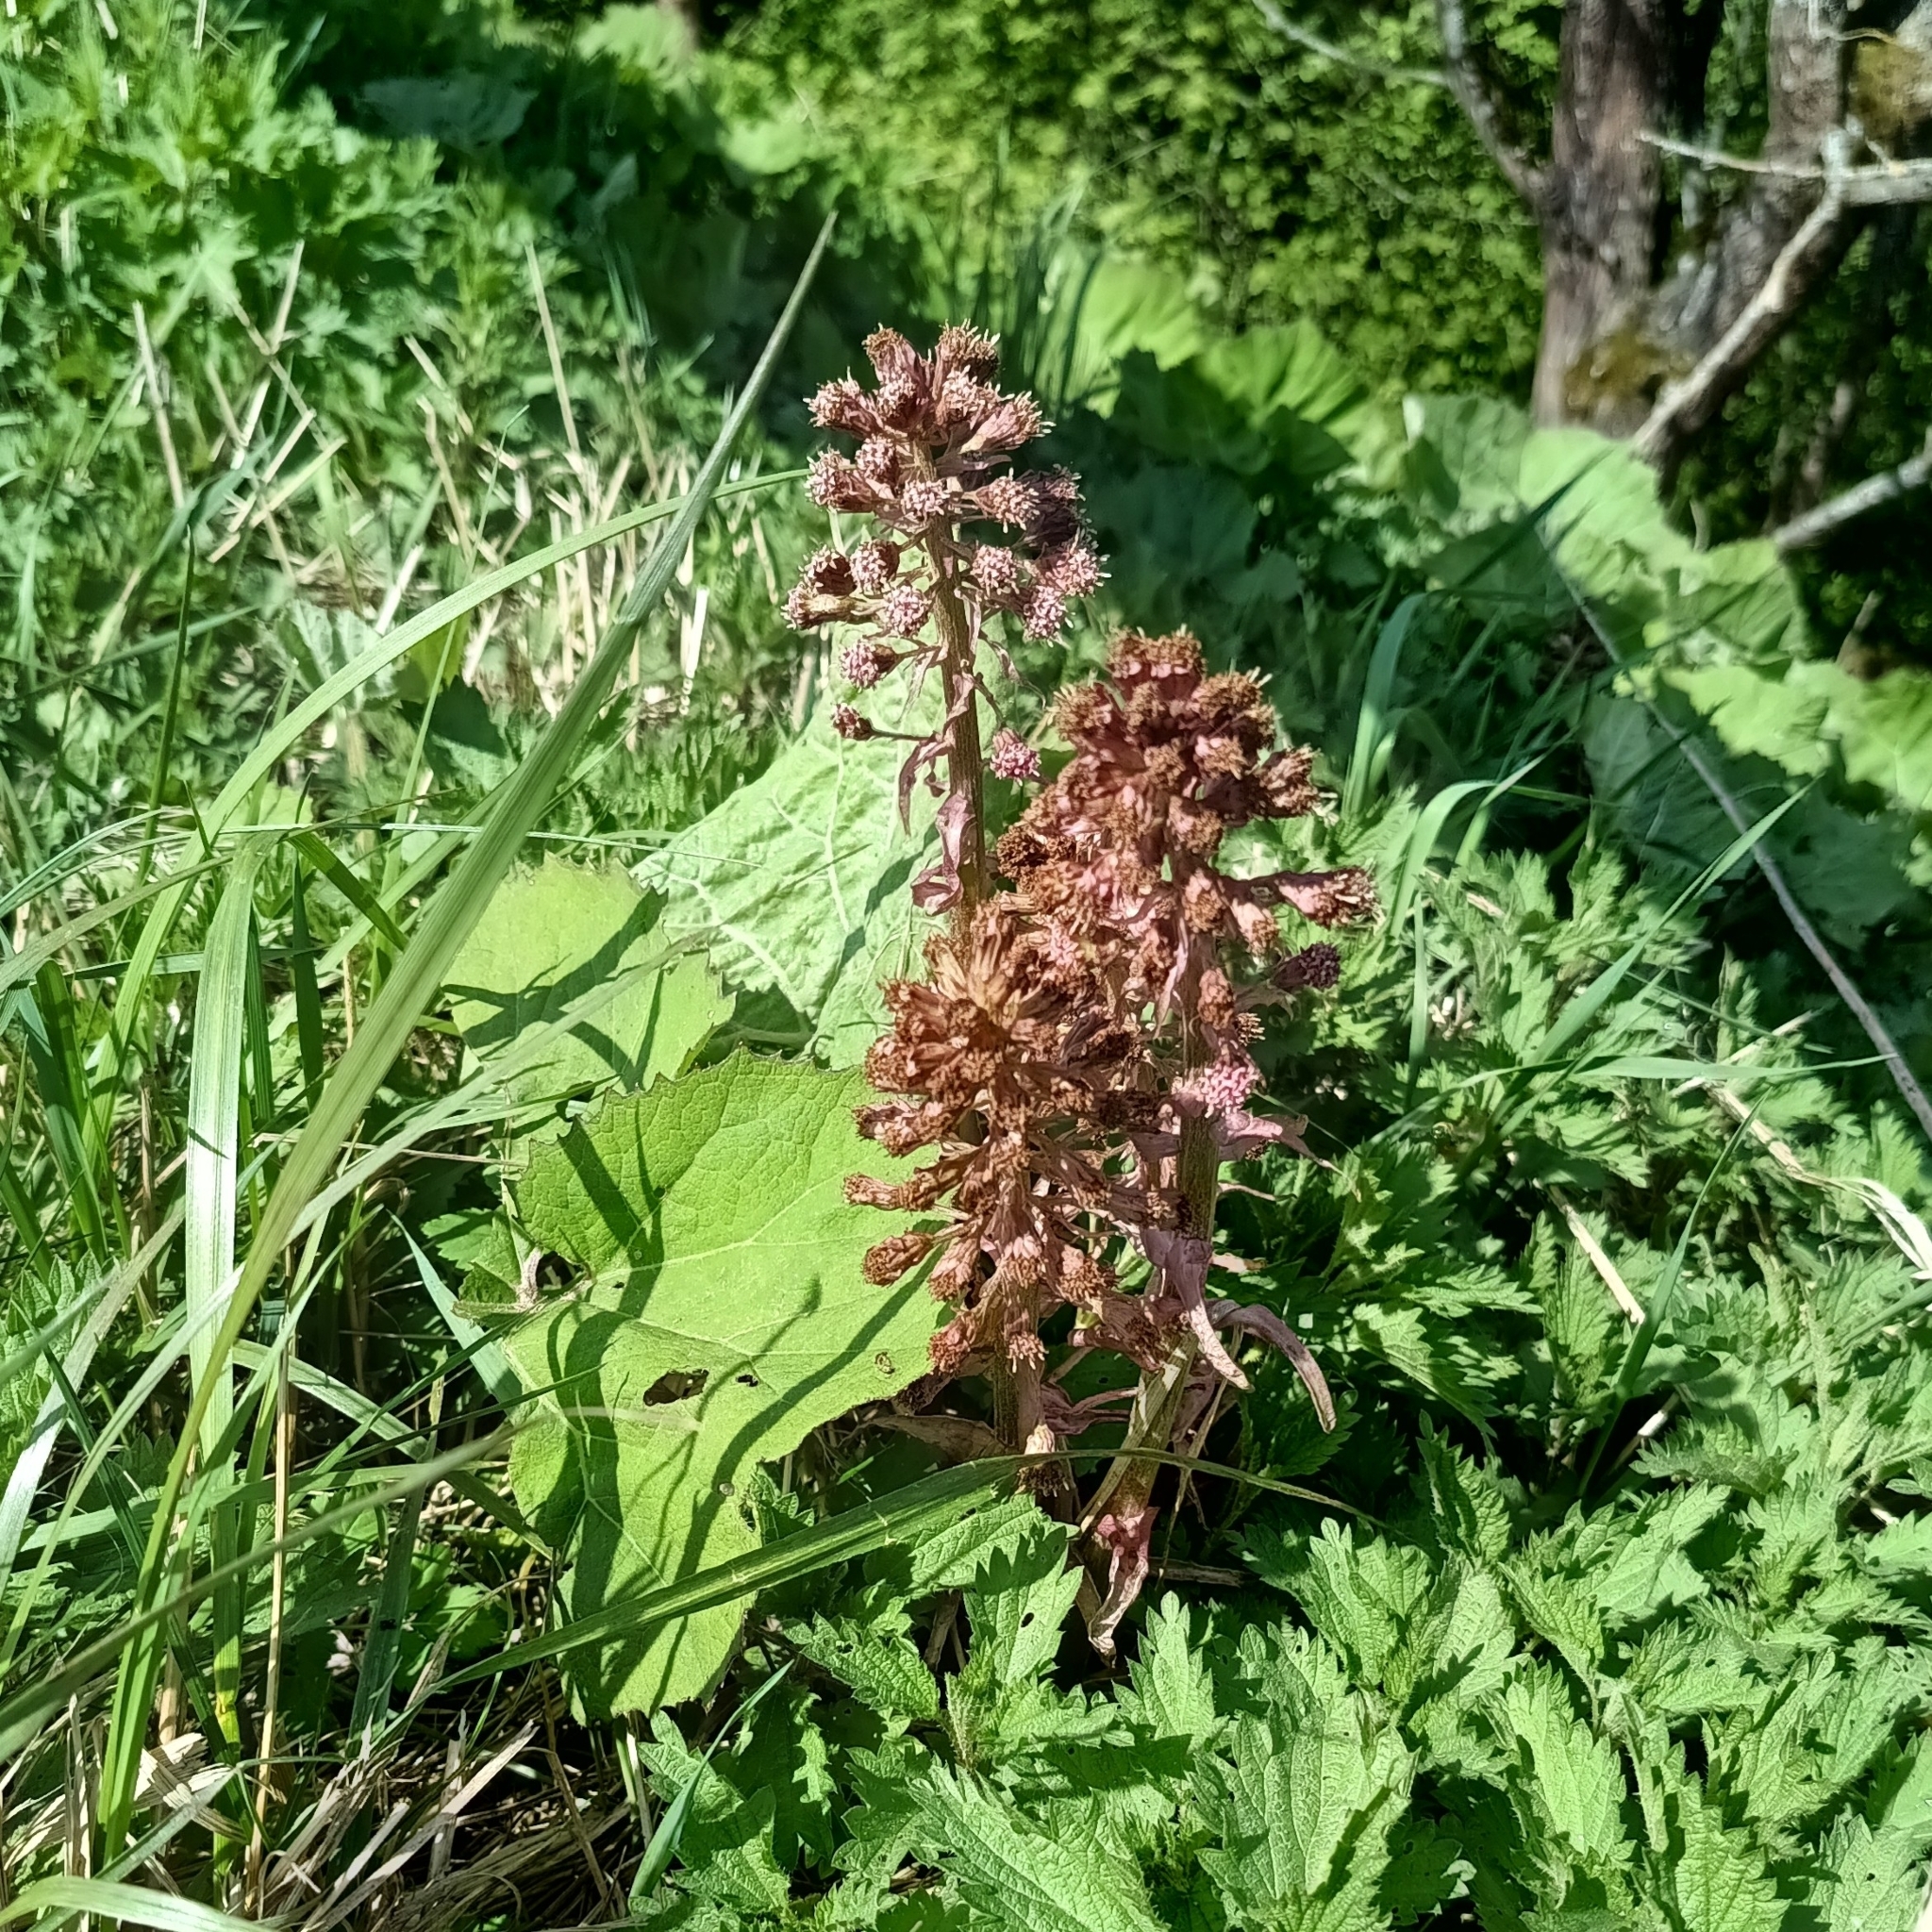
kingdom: Plantae
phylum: Tracheophyta
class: Magnoliopsida
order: Asterales
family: Asteraceae
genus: Petasites
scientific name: Petasites hybridus
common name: Butterbur
